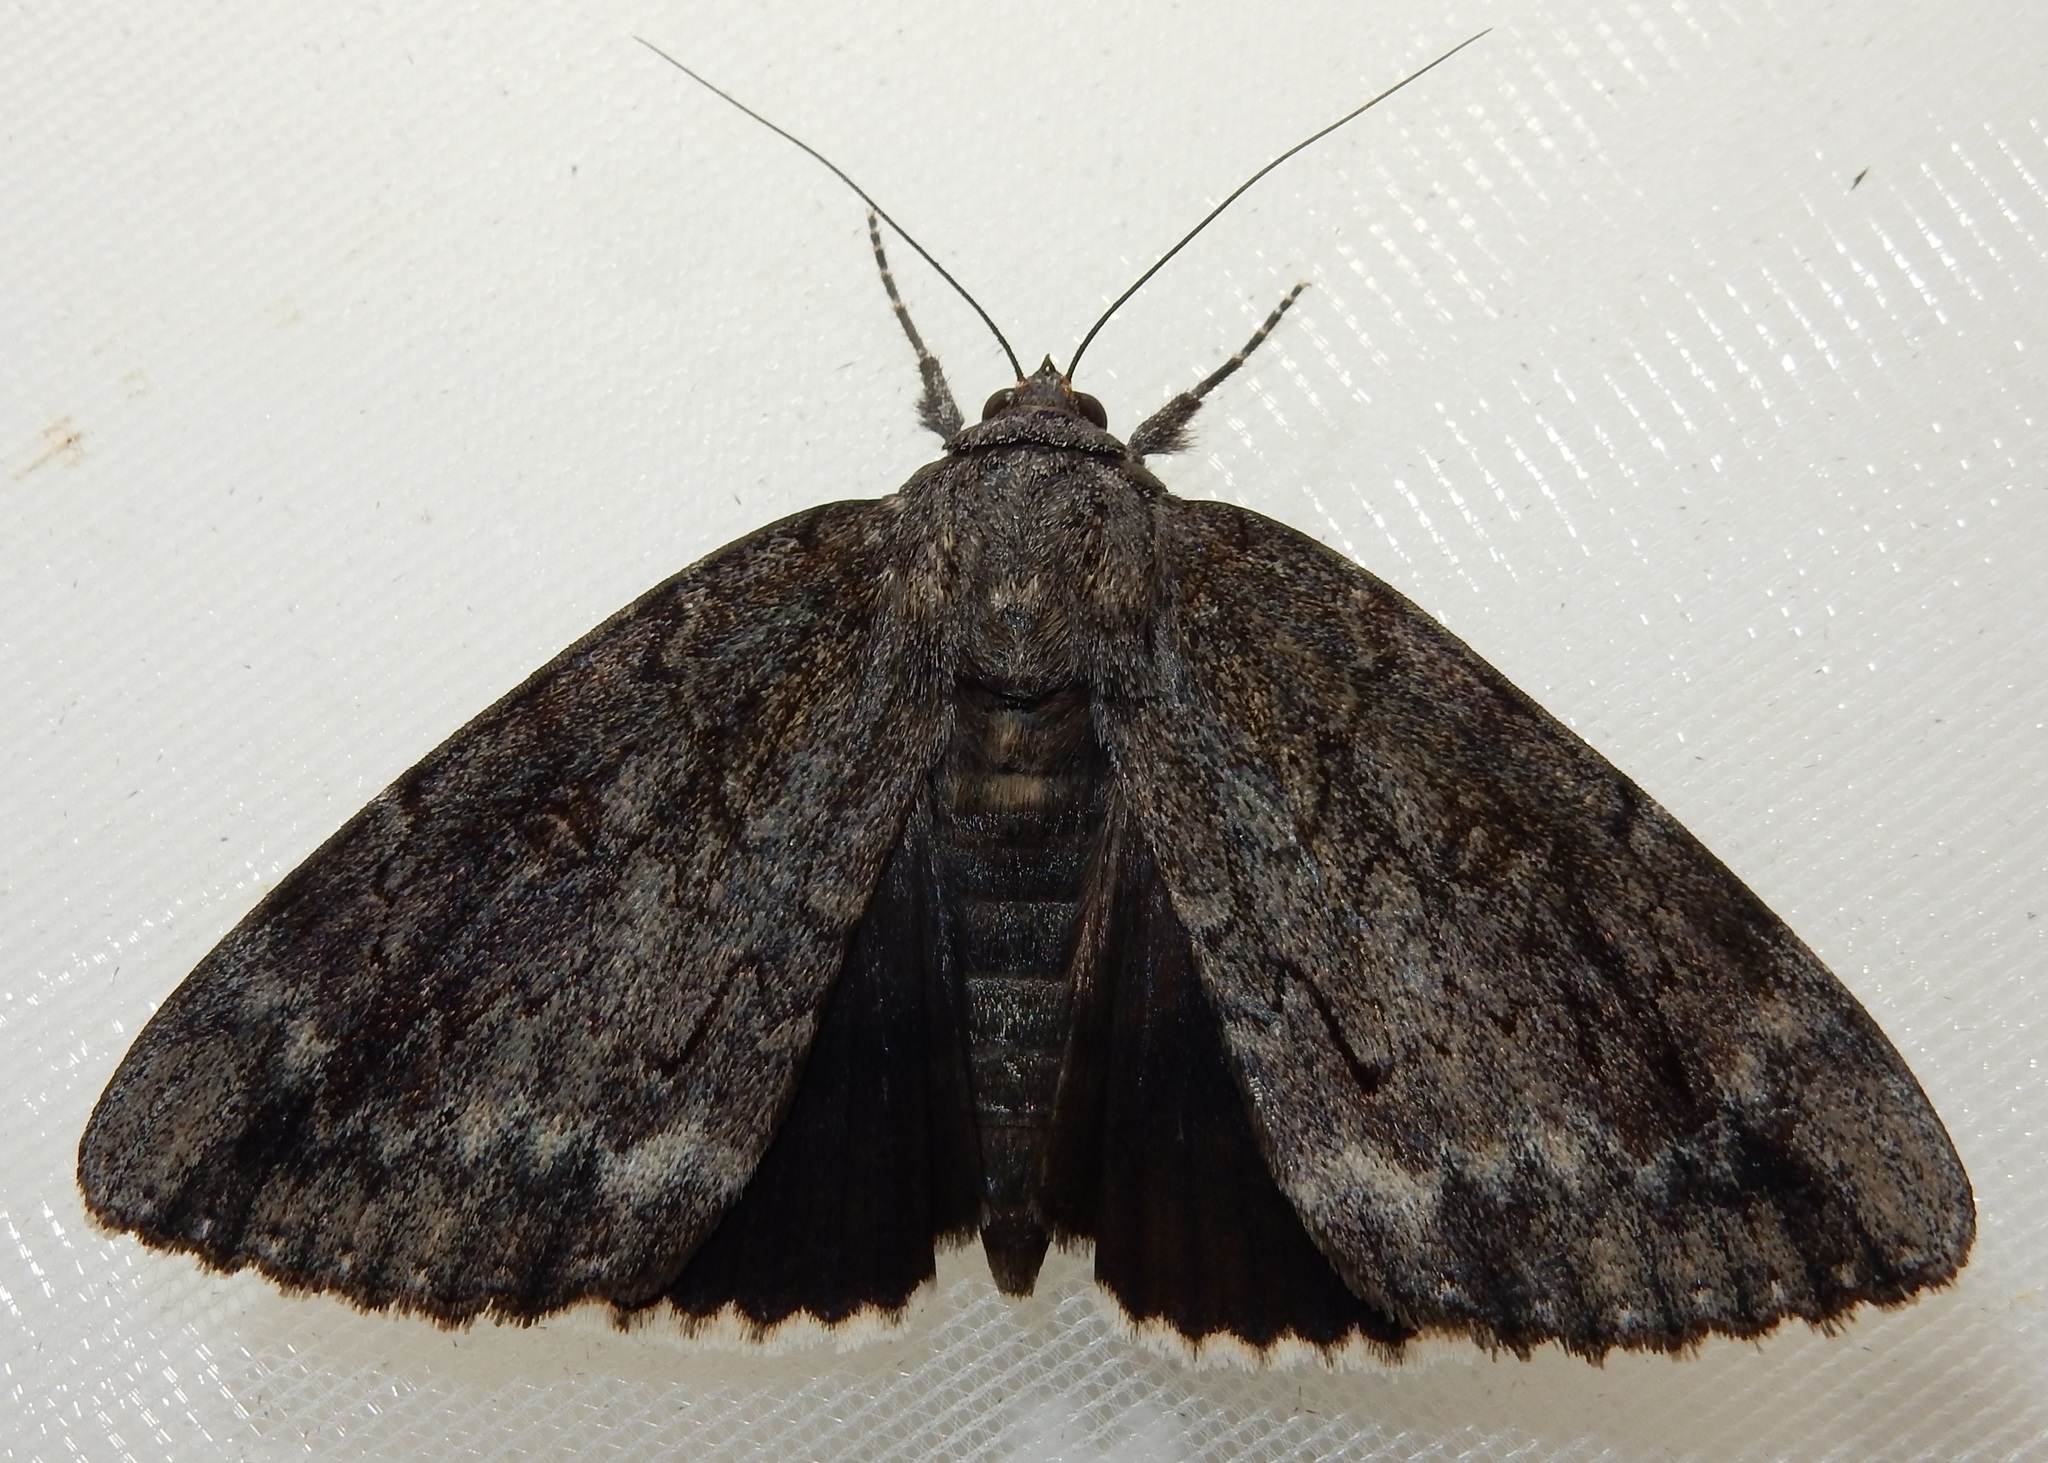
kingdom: Animalia
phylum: Arthropoda
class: Insecta
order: Lepidoptera
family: Erebidae
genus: Catocala
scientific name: Catocala residua
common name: Residua underwing
